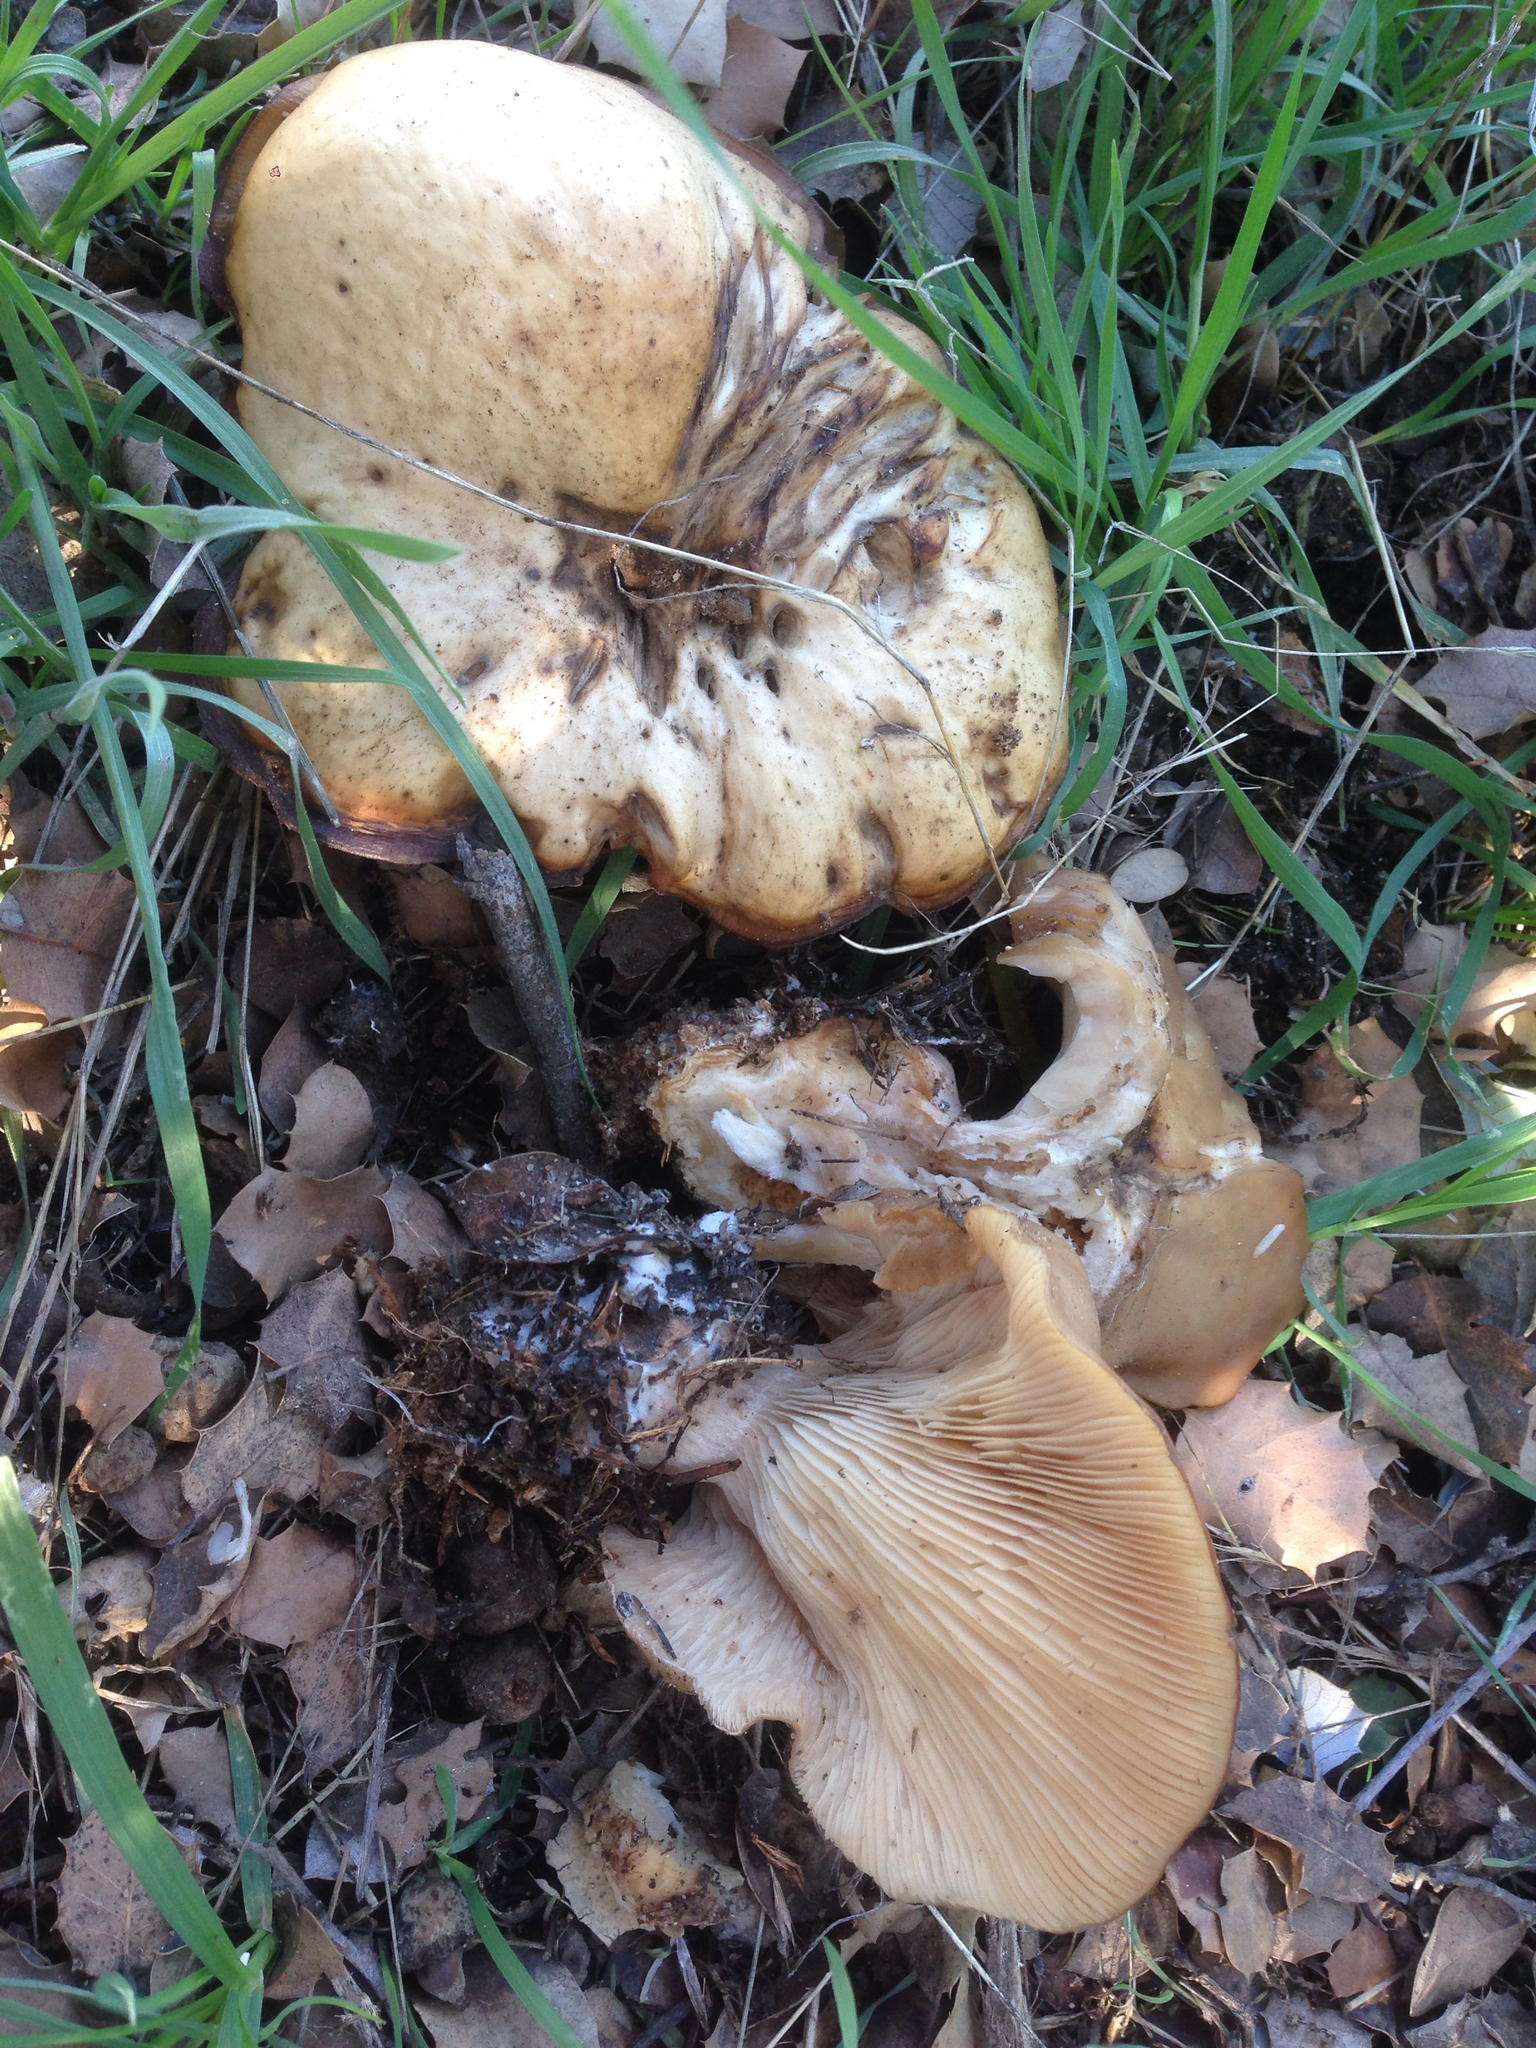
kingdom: Fungi
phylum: Basidiomycota
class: Agaricomycetes
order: Agaricales
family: Tricholomataceae
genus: Collybia
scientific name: Collybia
